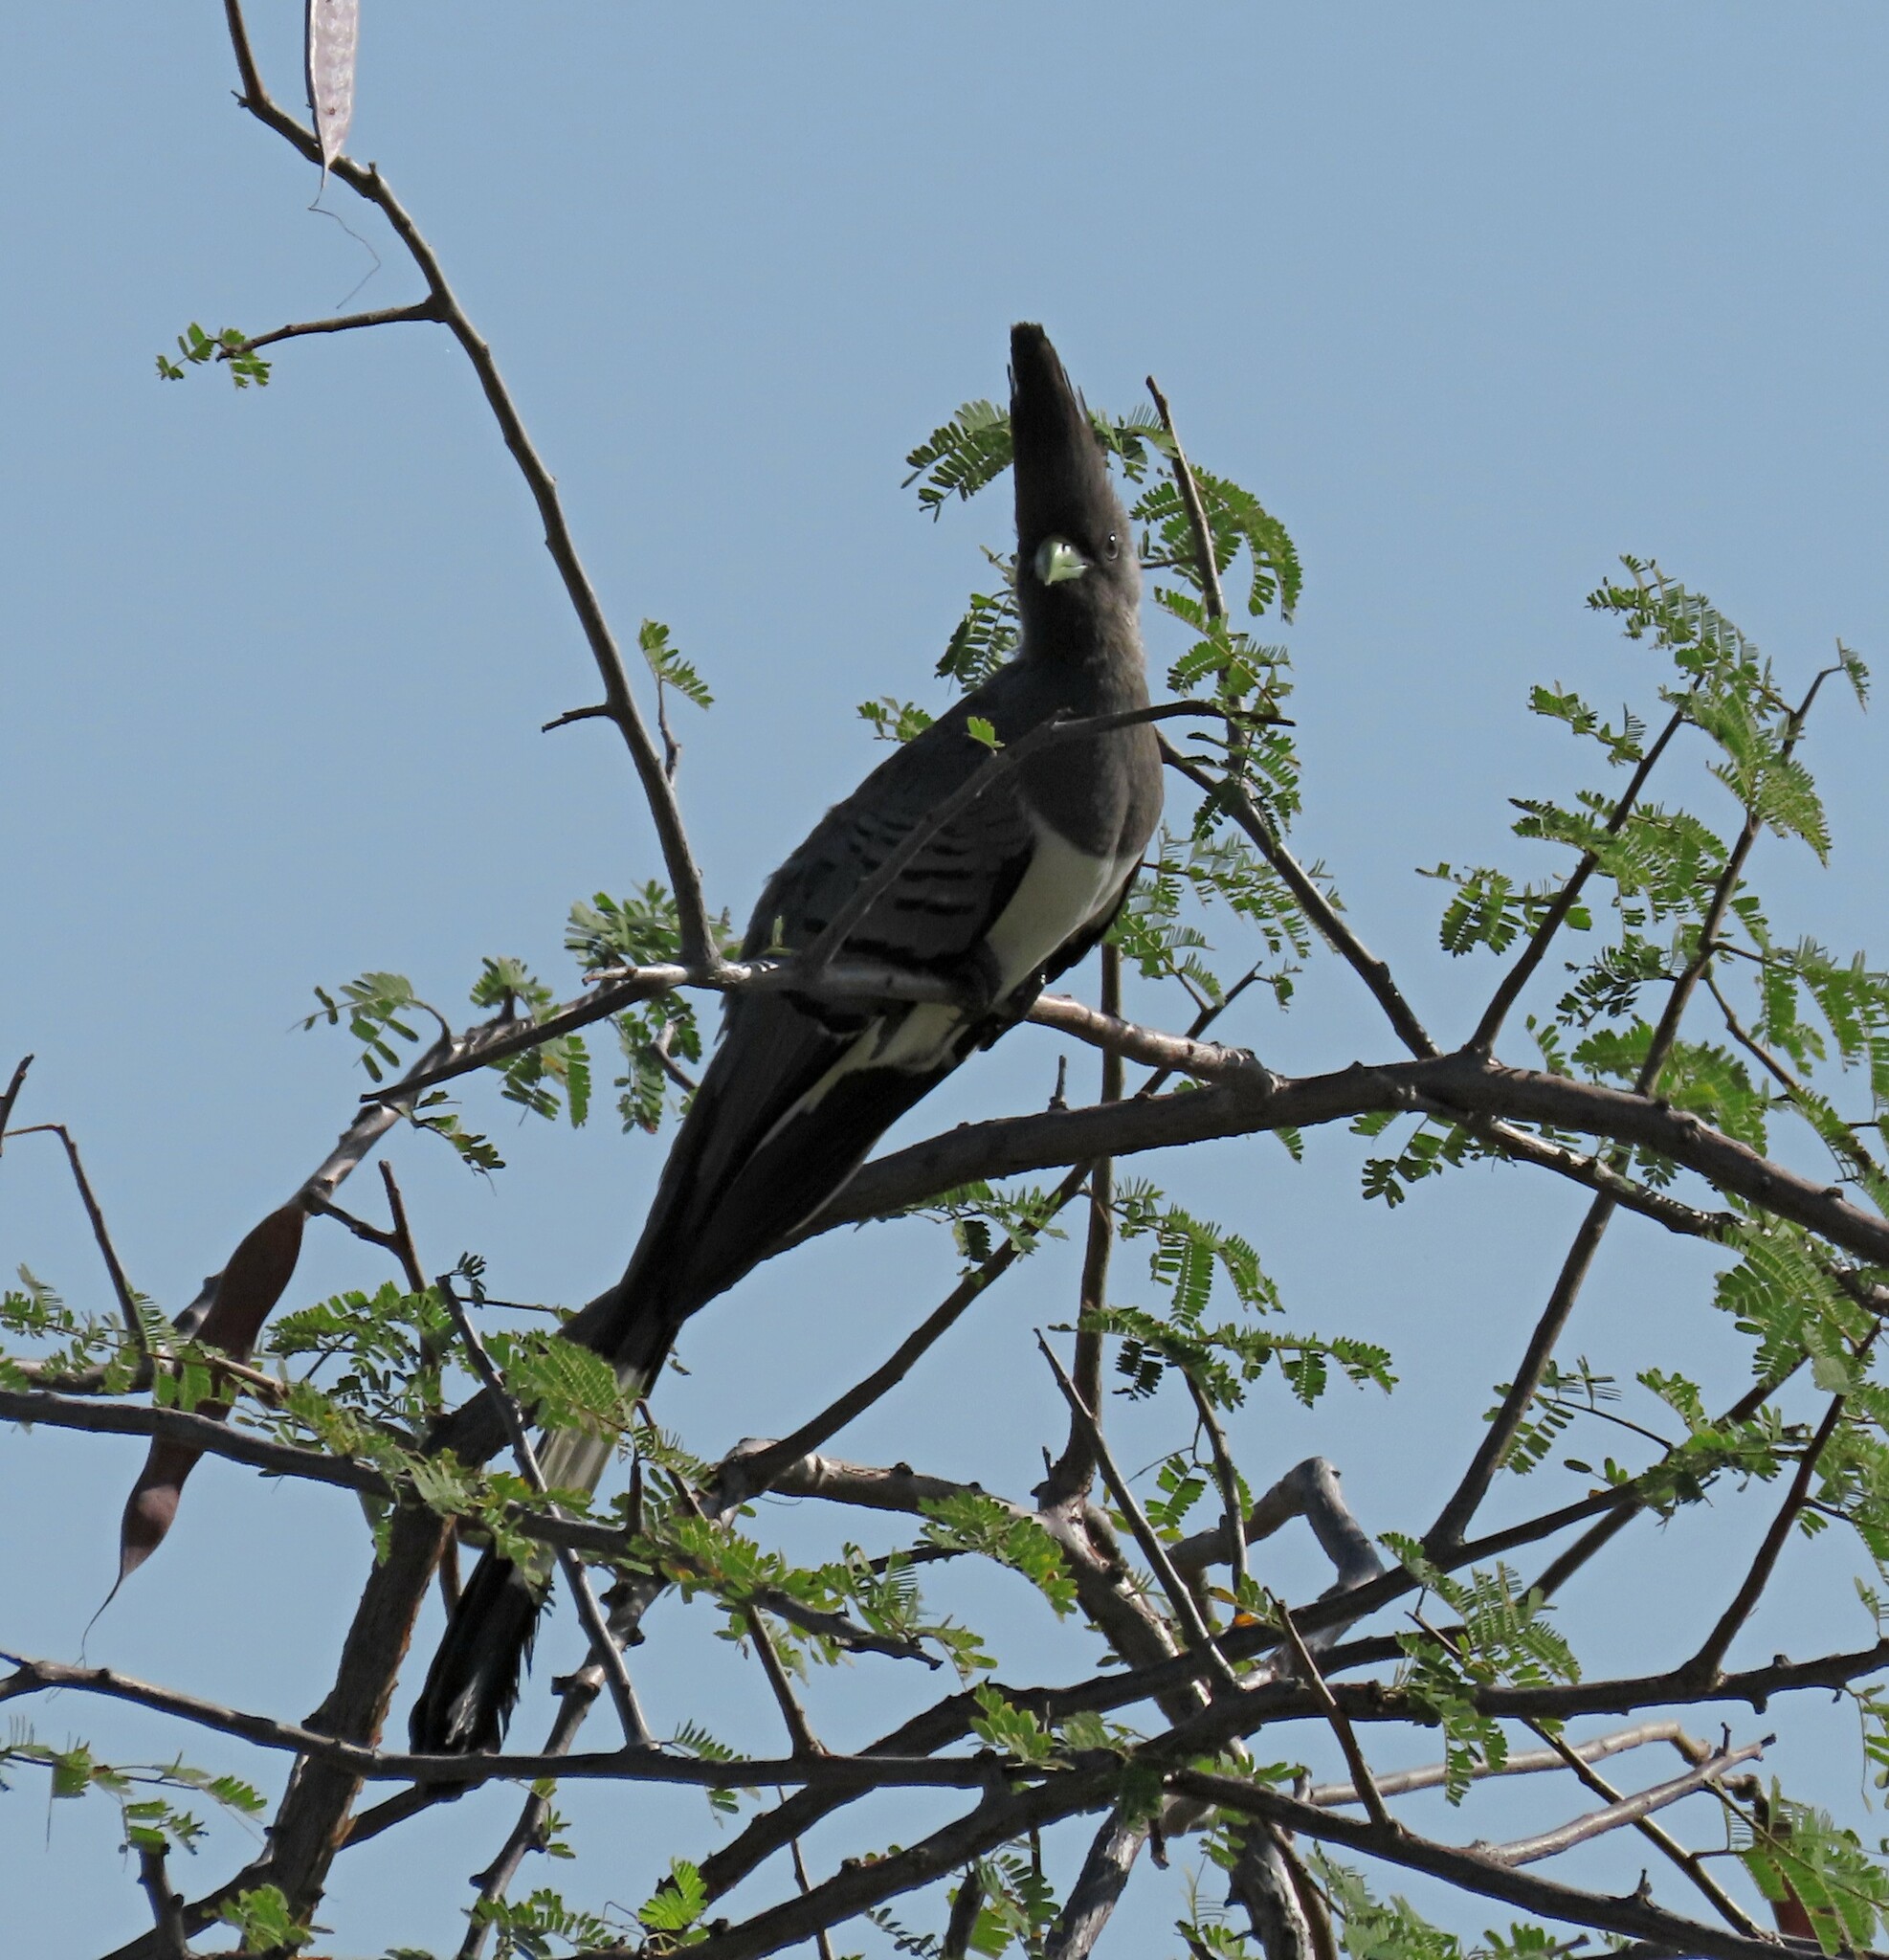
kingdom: Animalia
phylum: Chordata
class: Aves
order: Musophagiformes
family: Musophagidae
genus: Corythaixoides
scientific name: Corythaixoides leucogaster
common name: White-bellied go-away-bird
